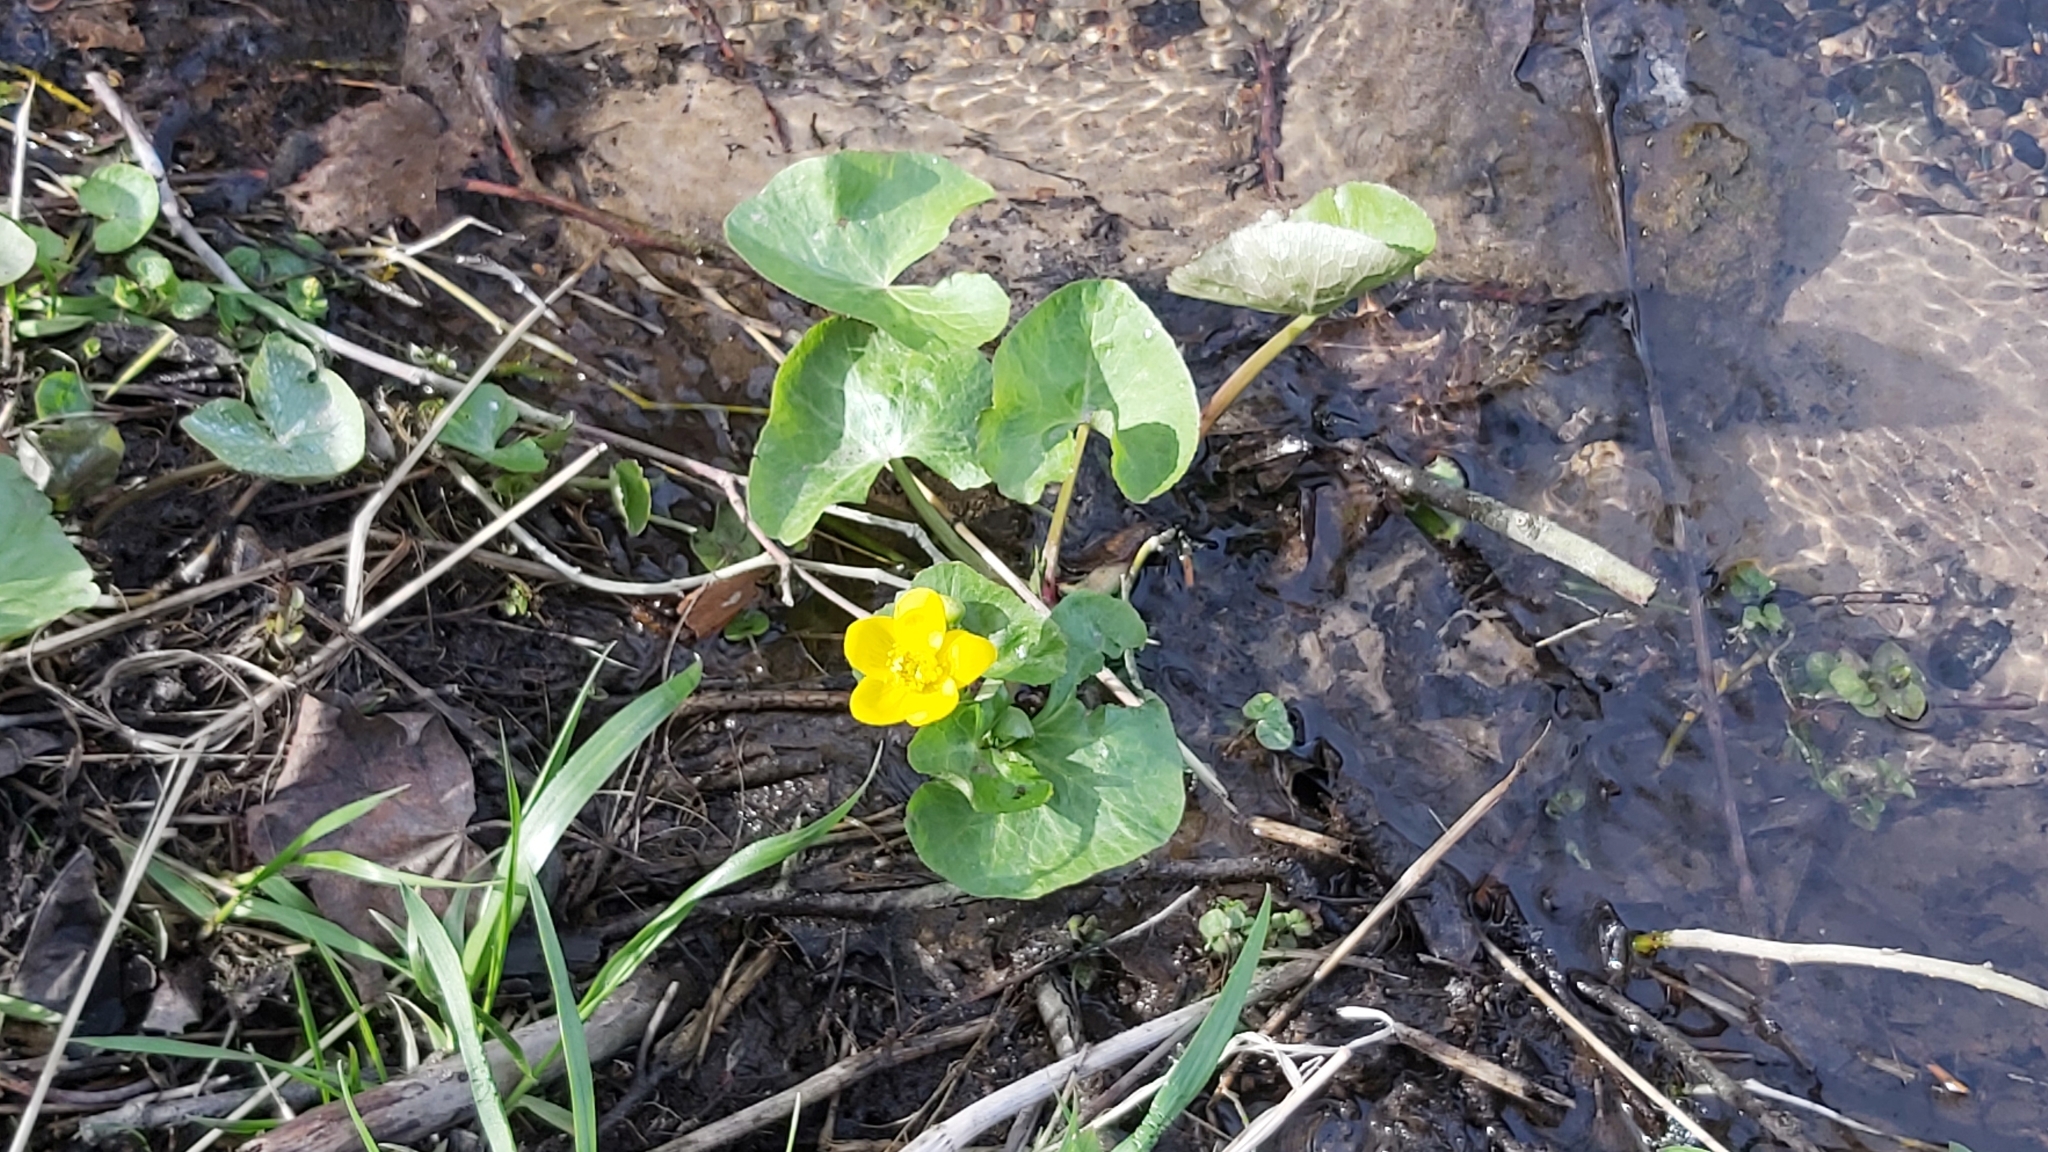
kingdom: Plantae
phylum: Tracheophyta
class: Magnoliopsida
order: Ranunculales
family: Ranunculaceae
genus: Caltha
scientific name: Caltha palustris
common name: Marsh marigold
